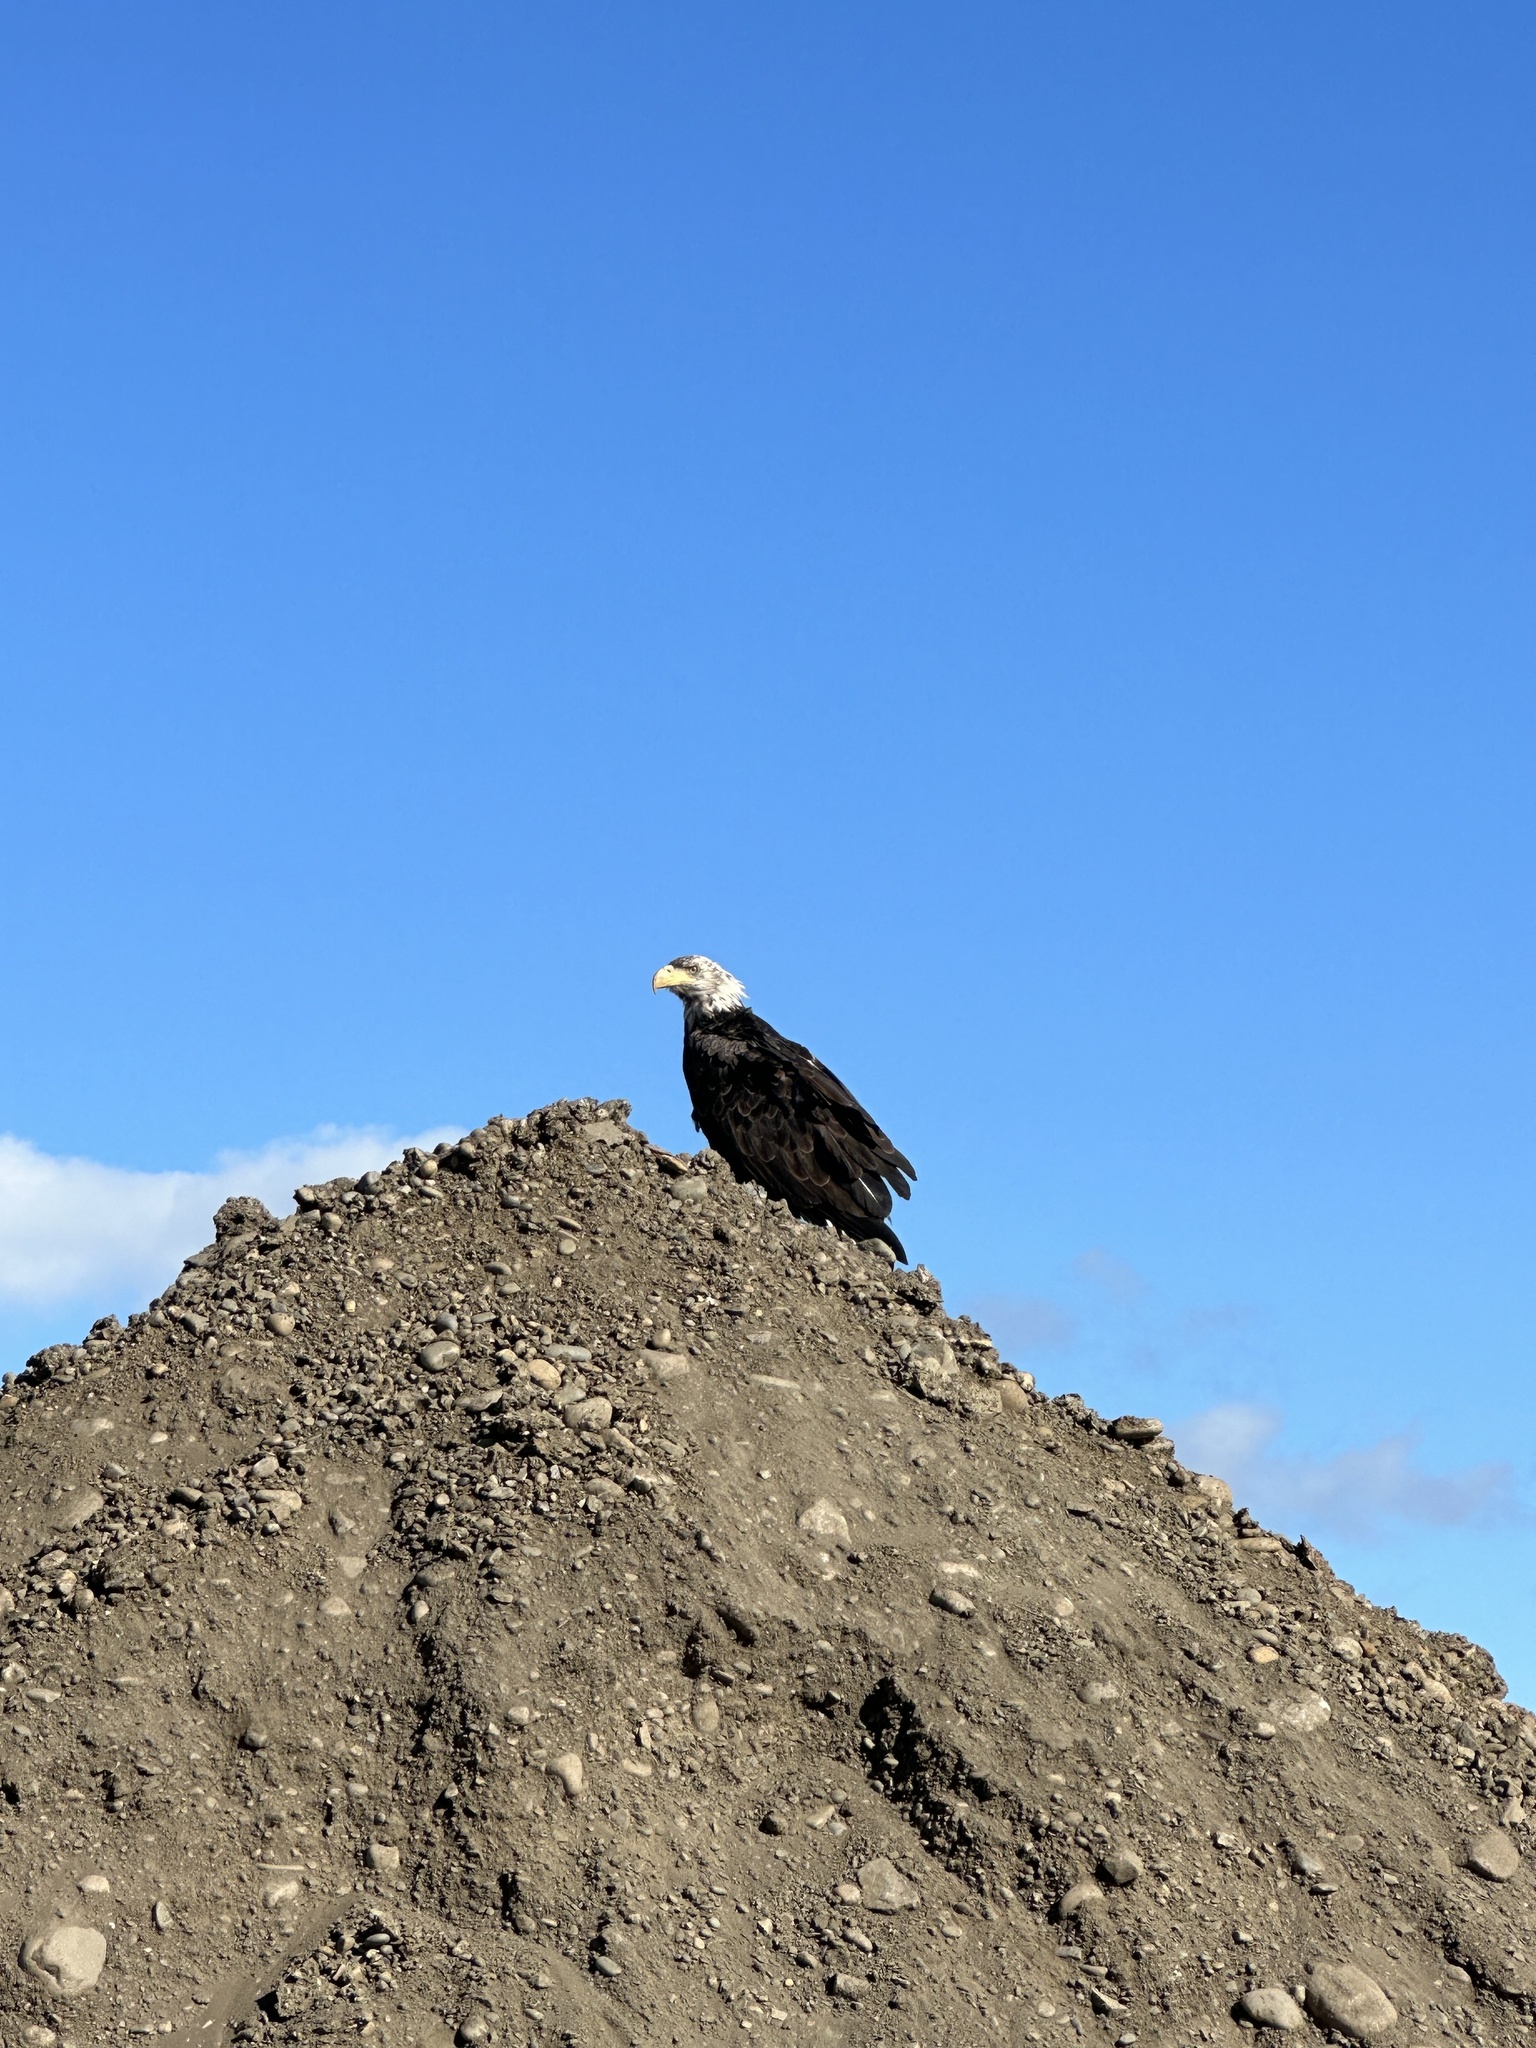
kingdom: Animalia
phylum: Chordata
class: Aves
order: Accipitriformes
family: Accipitridae
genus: Haliaeetus
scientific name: Haliaeetus leucocephalus
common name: Bald eagle
